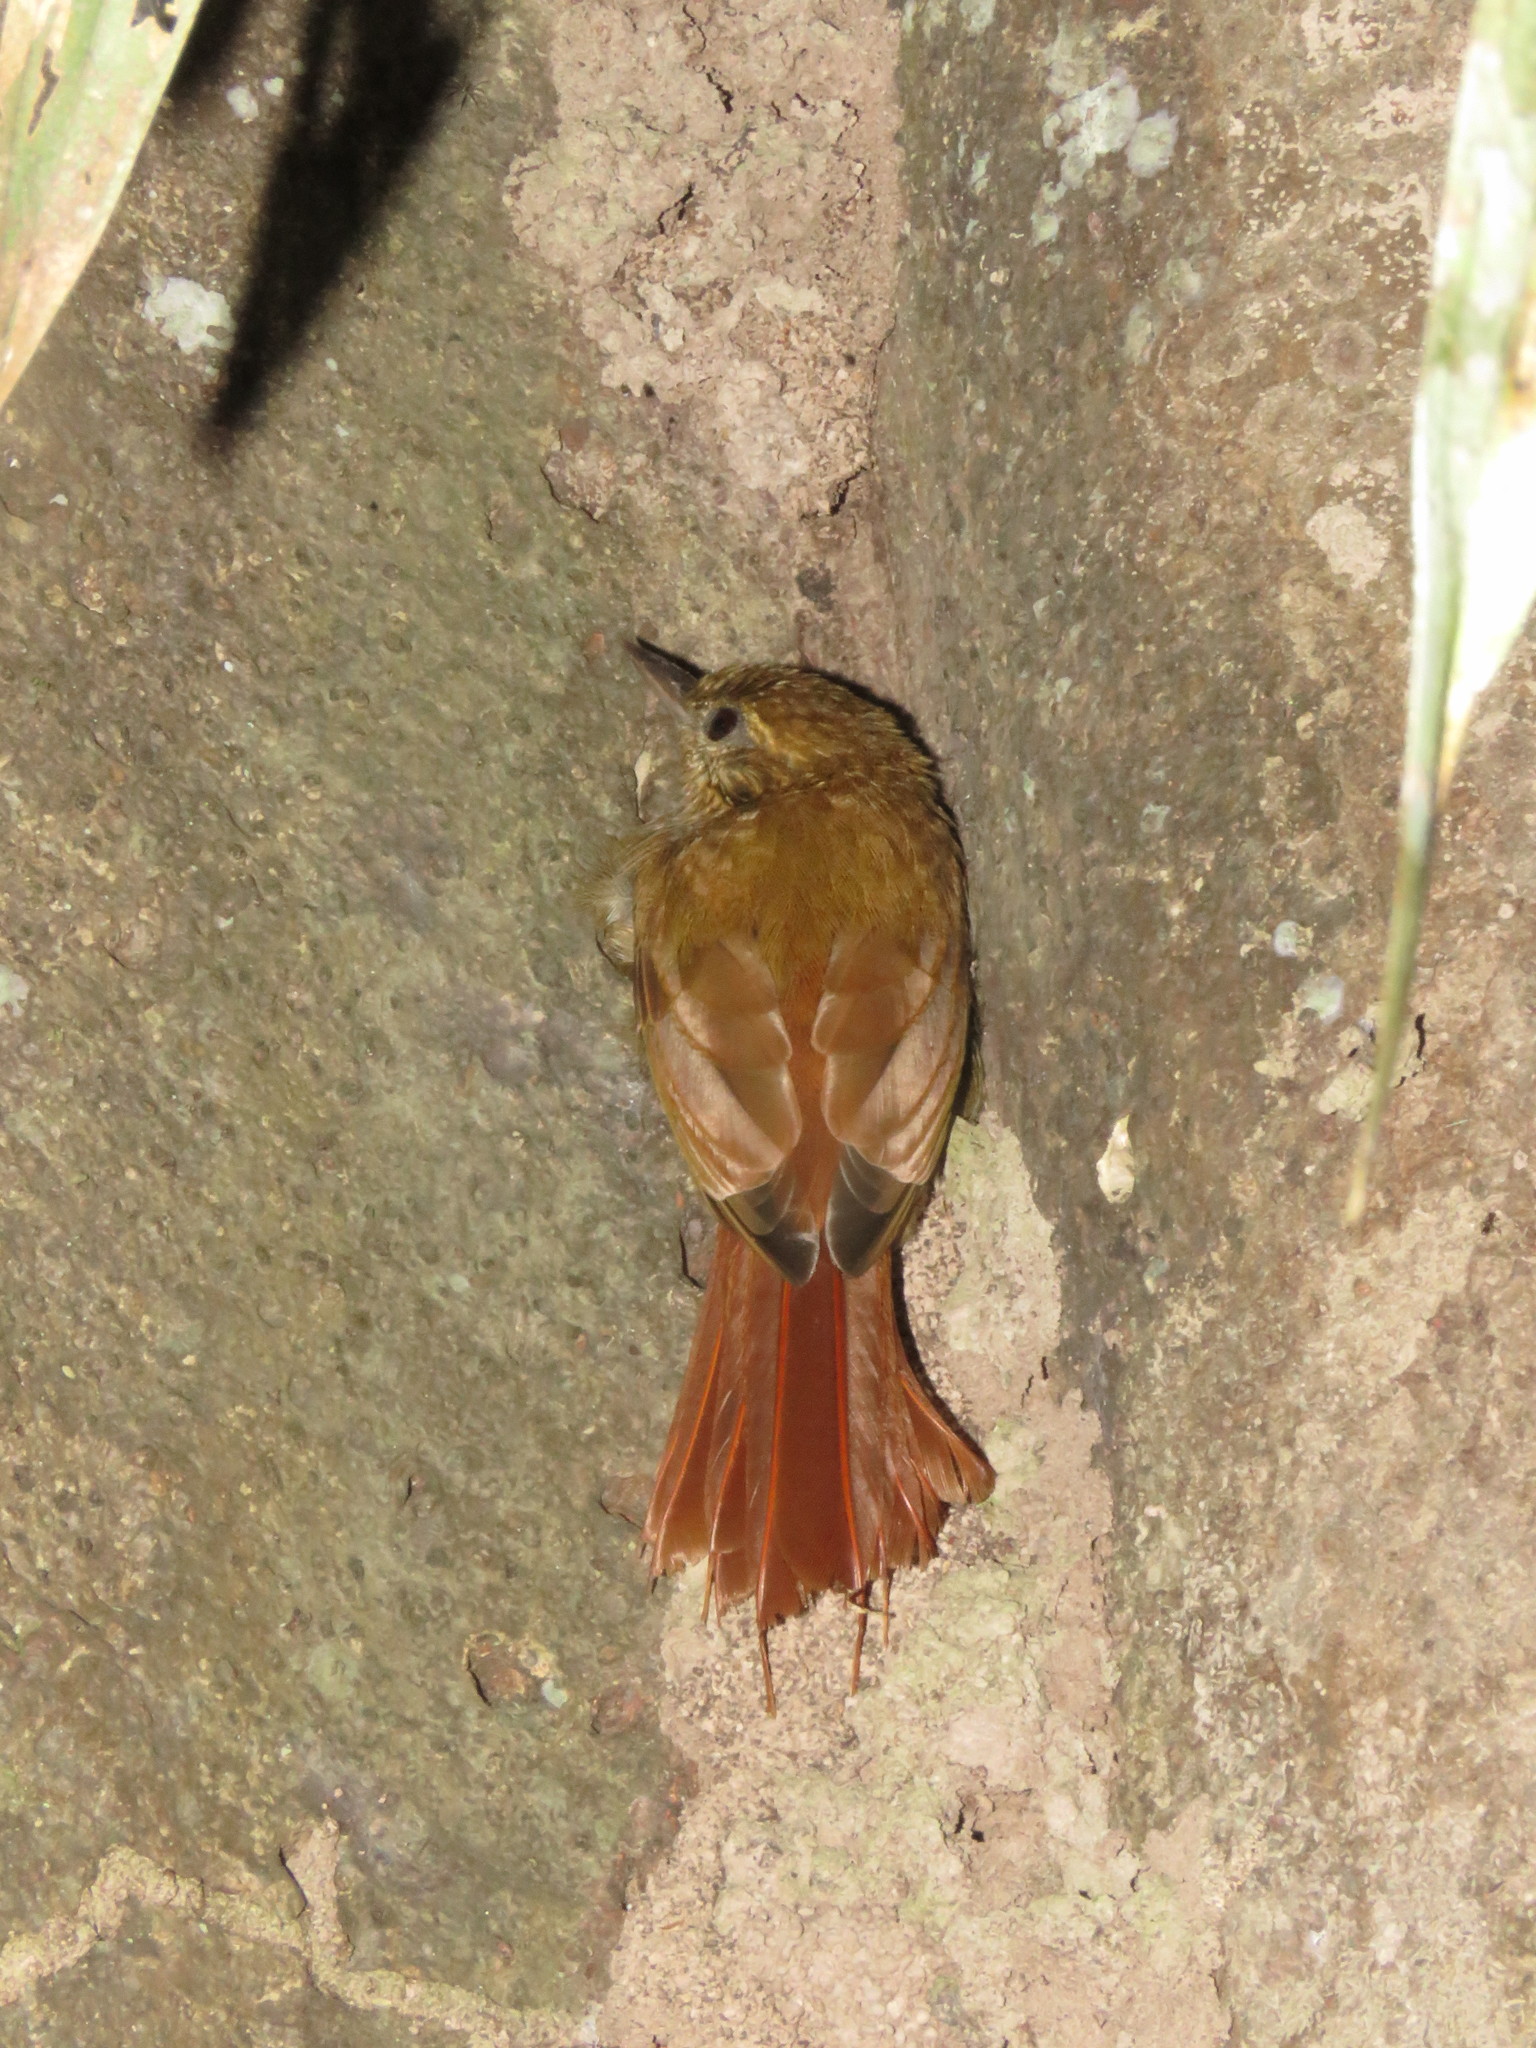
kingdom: Animalia
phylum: Chordata
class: Aves
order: Passeriformes
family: Furnariidae
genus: Glyphorynchus
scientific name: Glyphorynchus spirurus
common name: Wedge-billed woodcreeper
